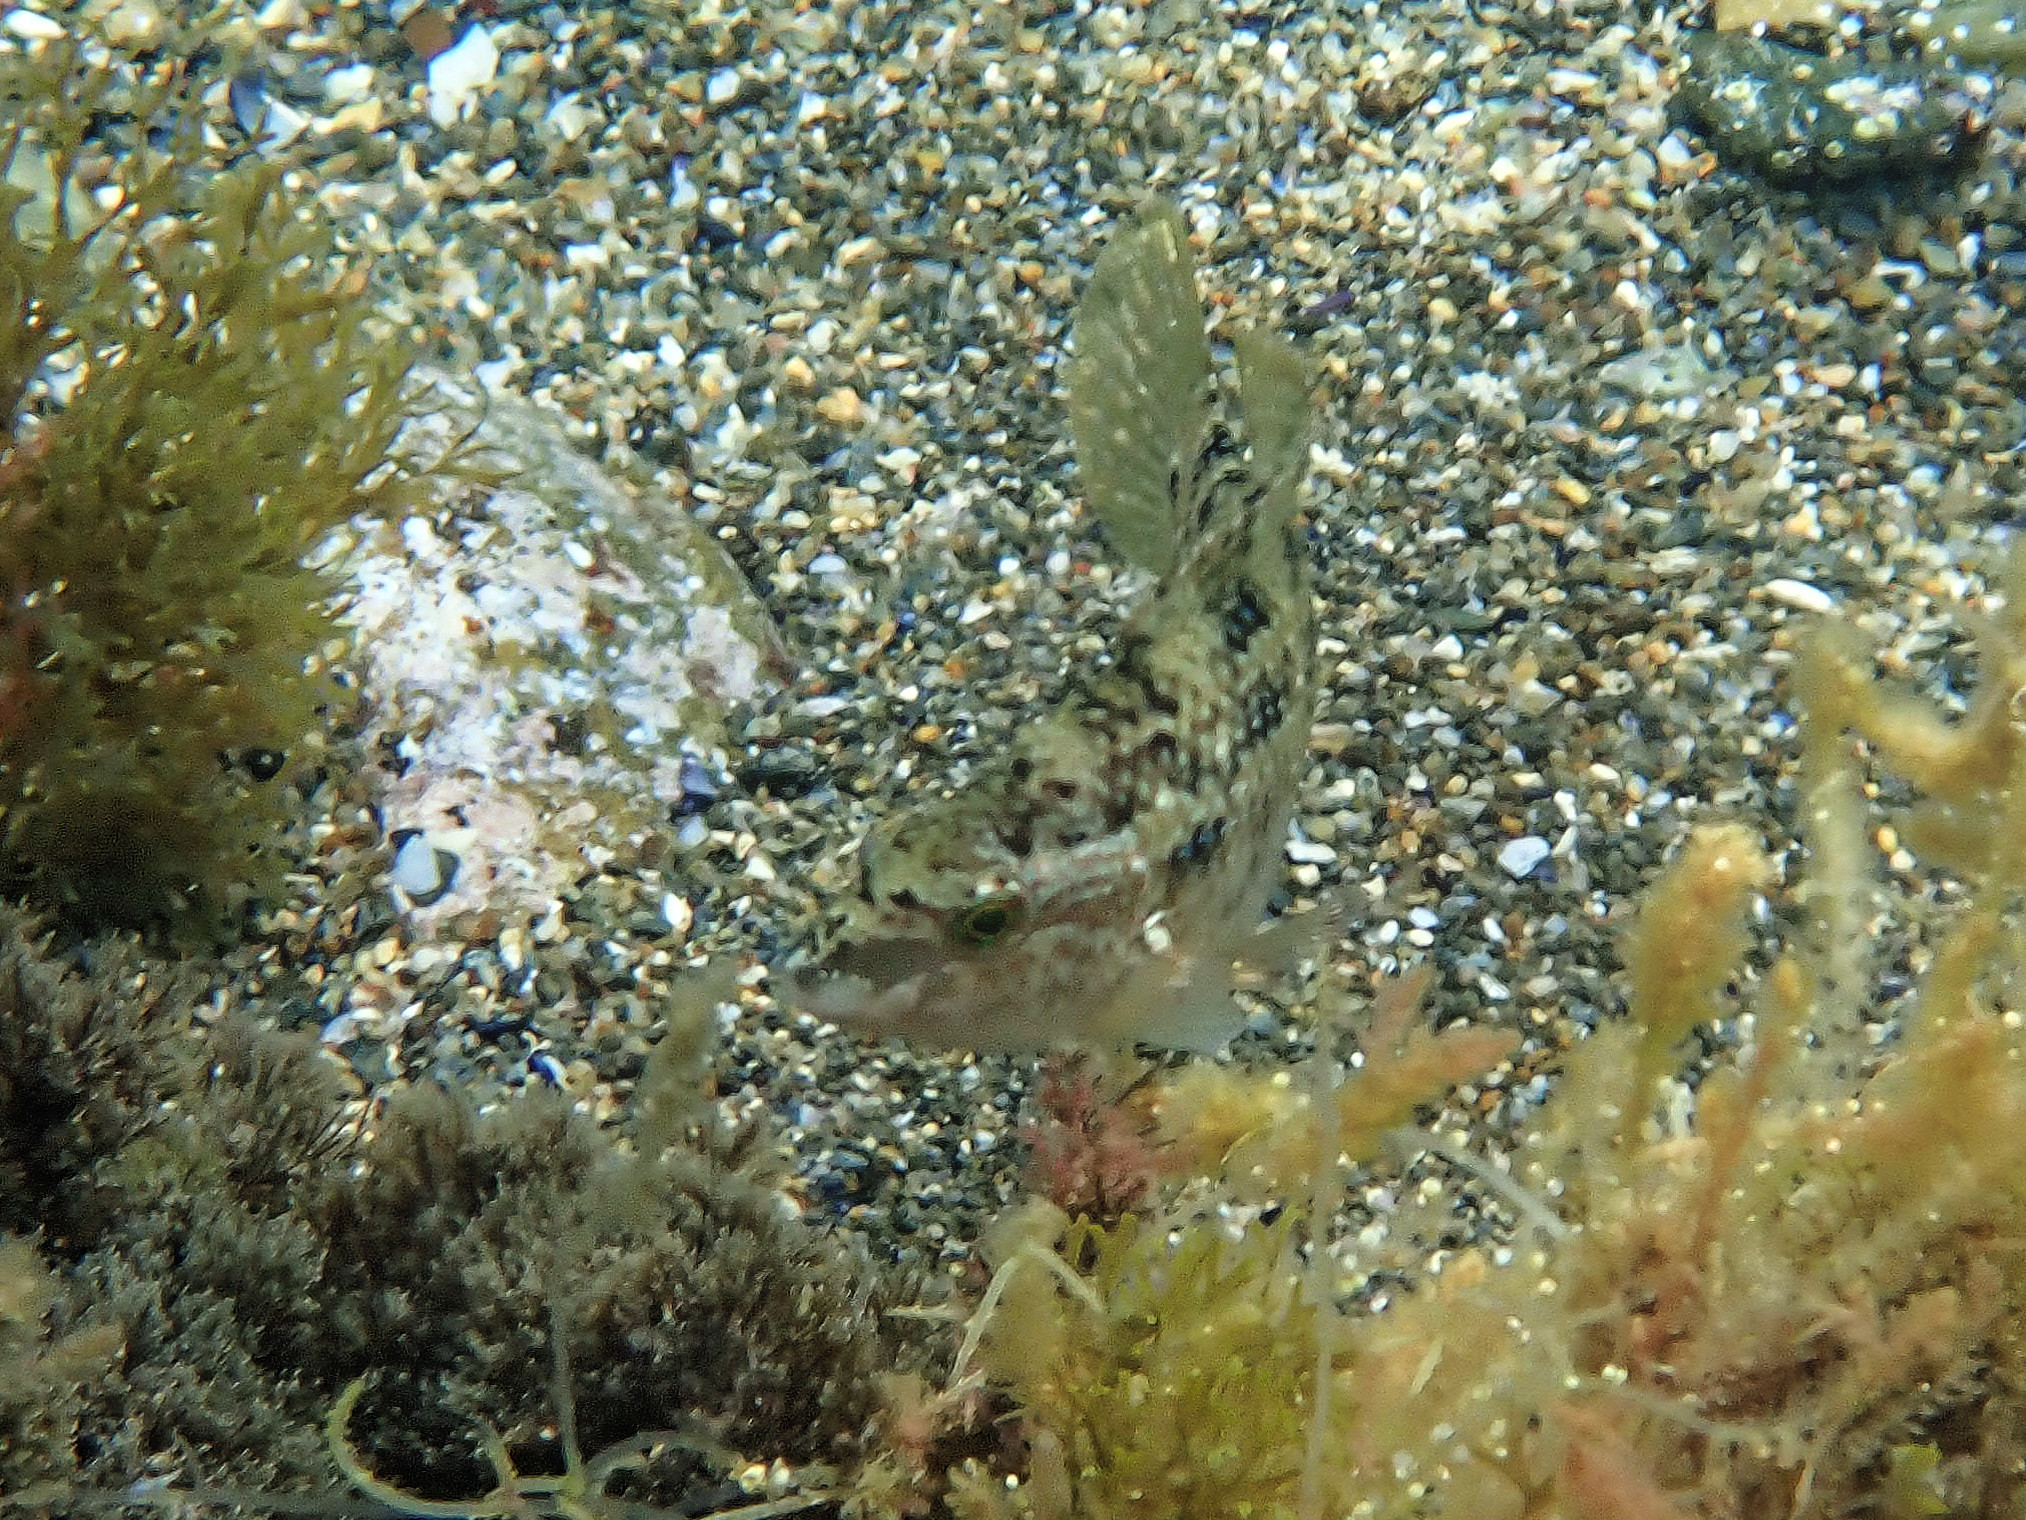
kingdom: Animalia
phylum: Chordata
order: Perciformes
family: Labridae
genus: Symphodus
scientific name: Symphodus tinca
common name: Peacock wrasse
